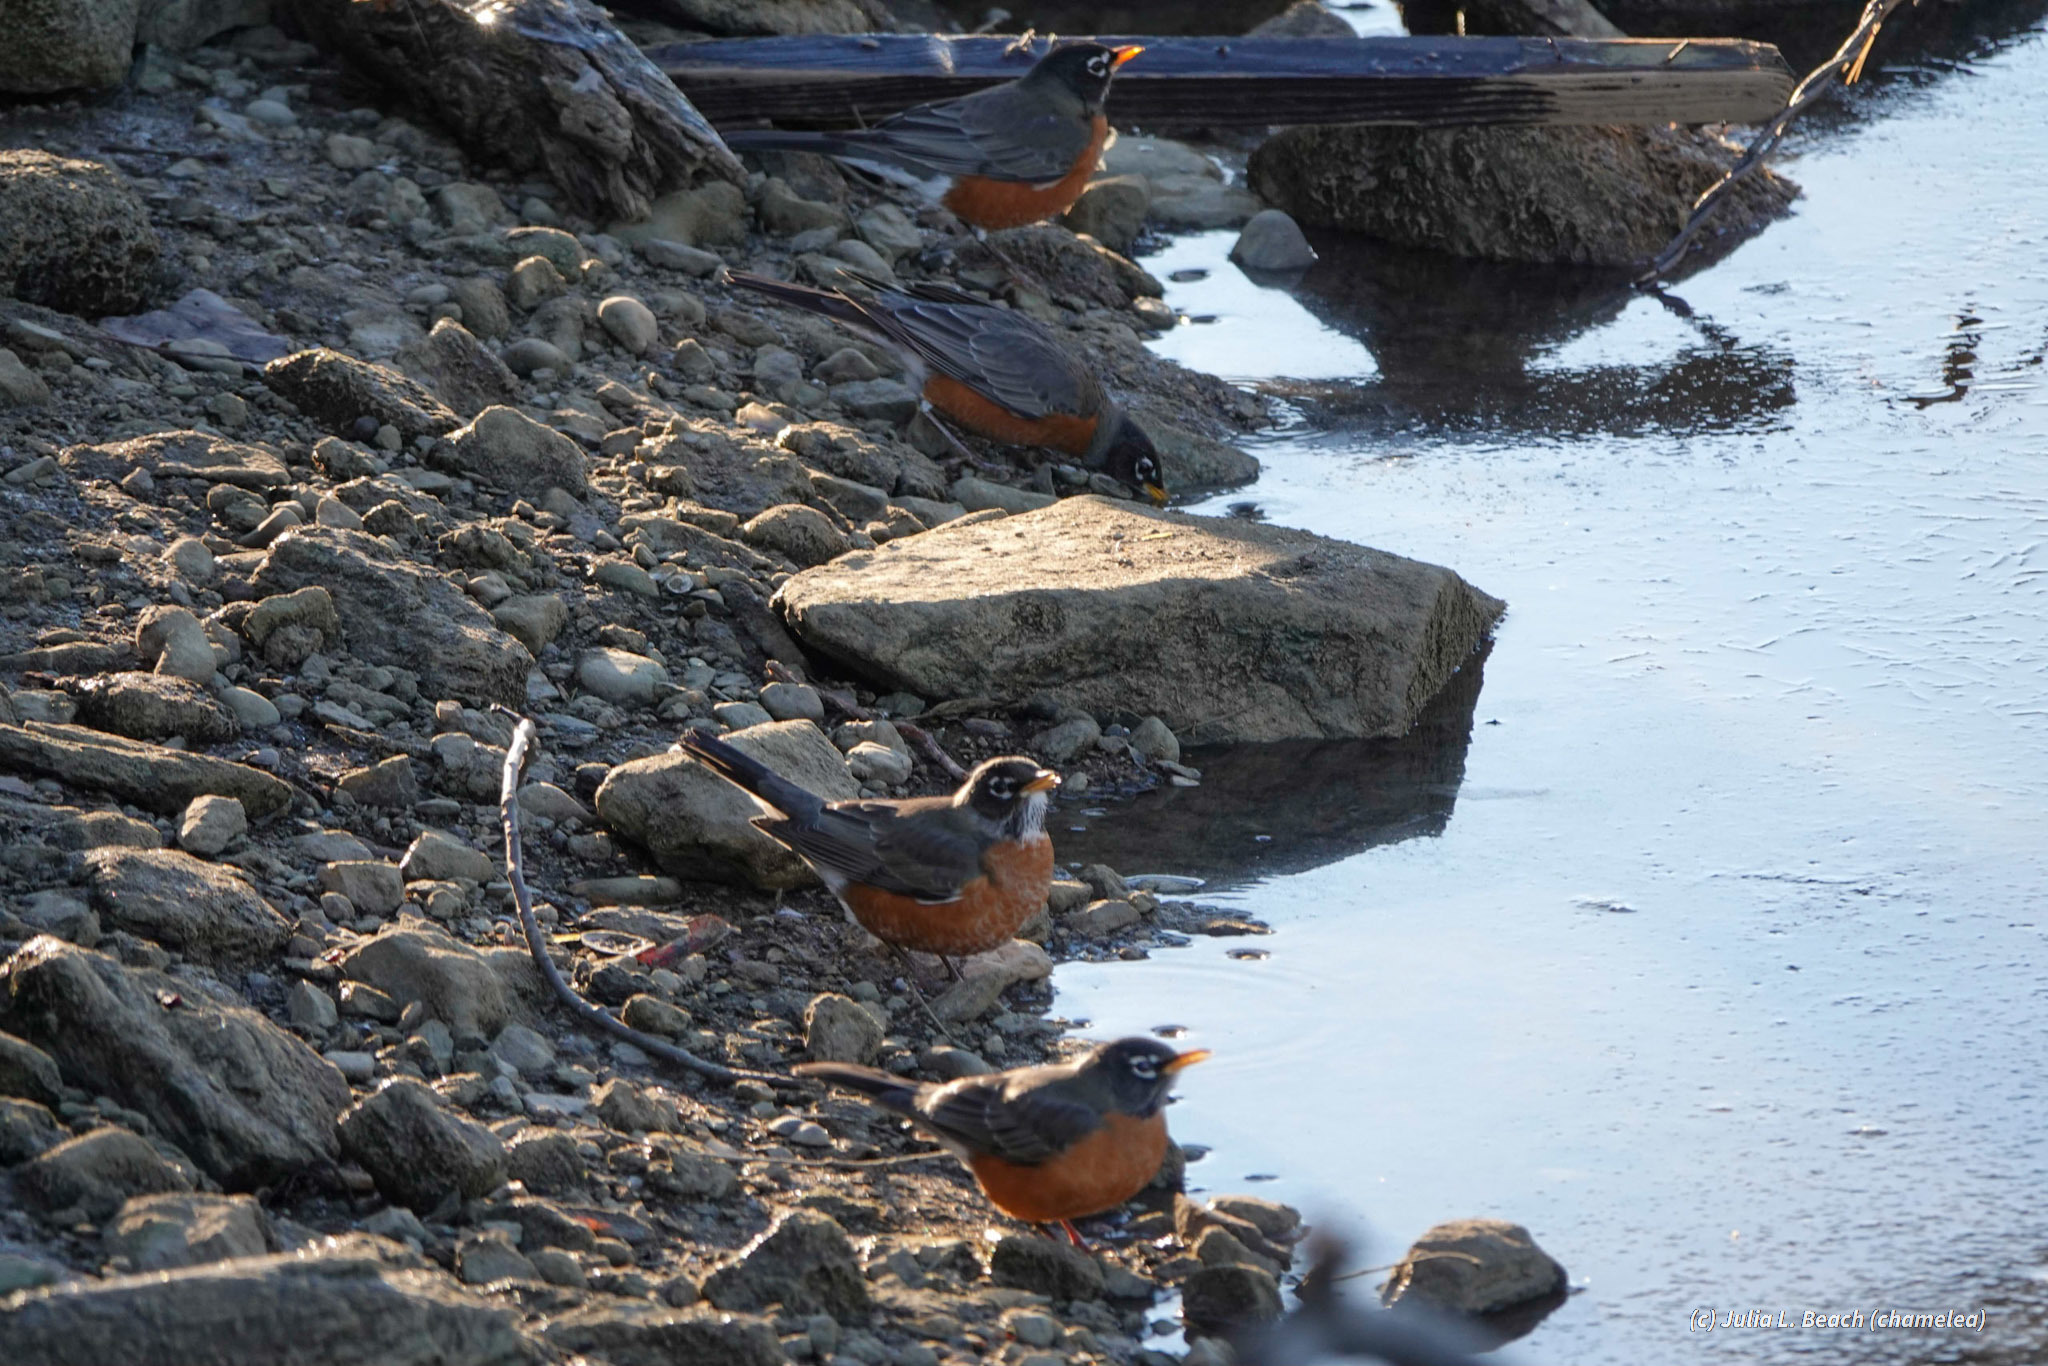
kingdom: Animalia
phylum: Chordata
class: Aves
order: Passeriformes
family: Turdidae
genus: Turdus
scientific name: Turdus migratorius
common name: American robin
